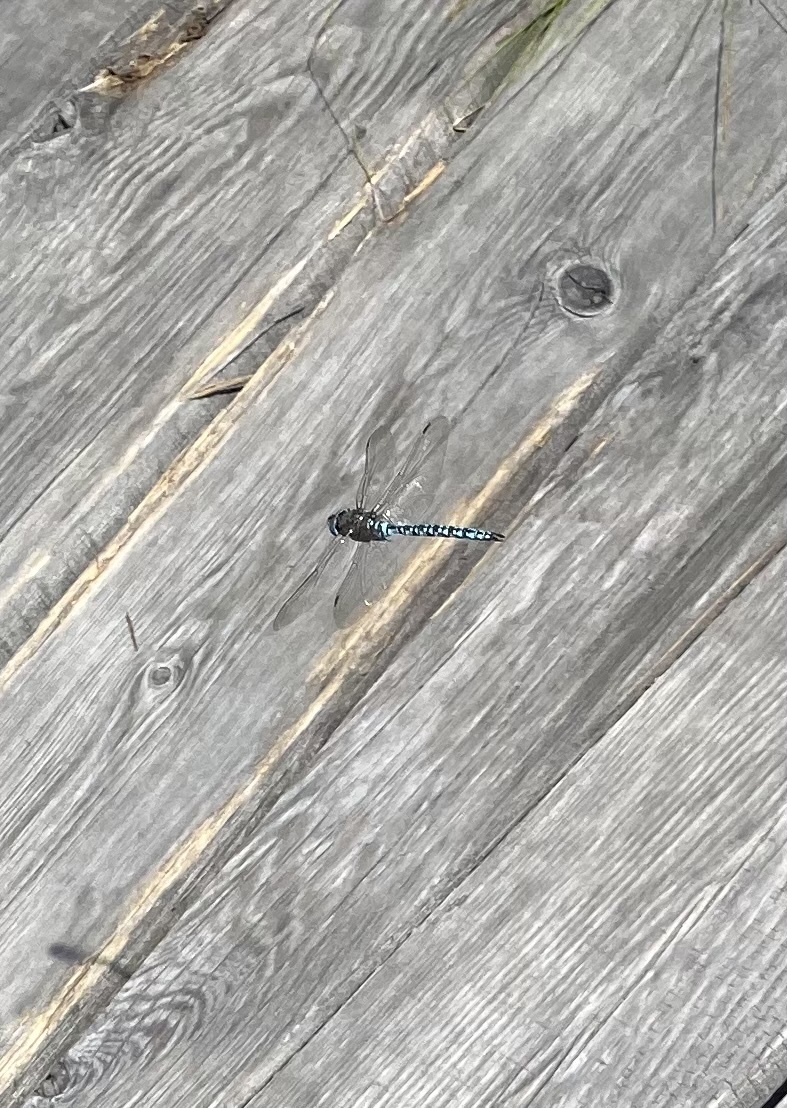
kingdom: Animalia
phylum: Arthropoda
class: Insecta
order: Odonata
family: Aeshnidae
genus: Aeshna
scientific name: Aeshna caerulea
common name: Azure hawker
